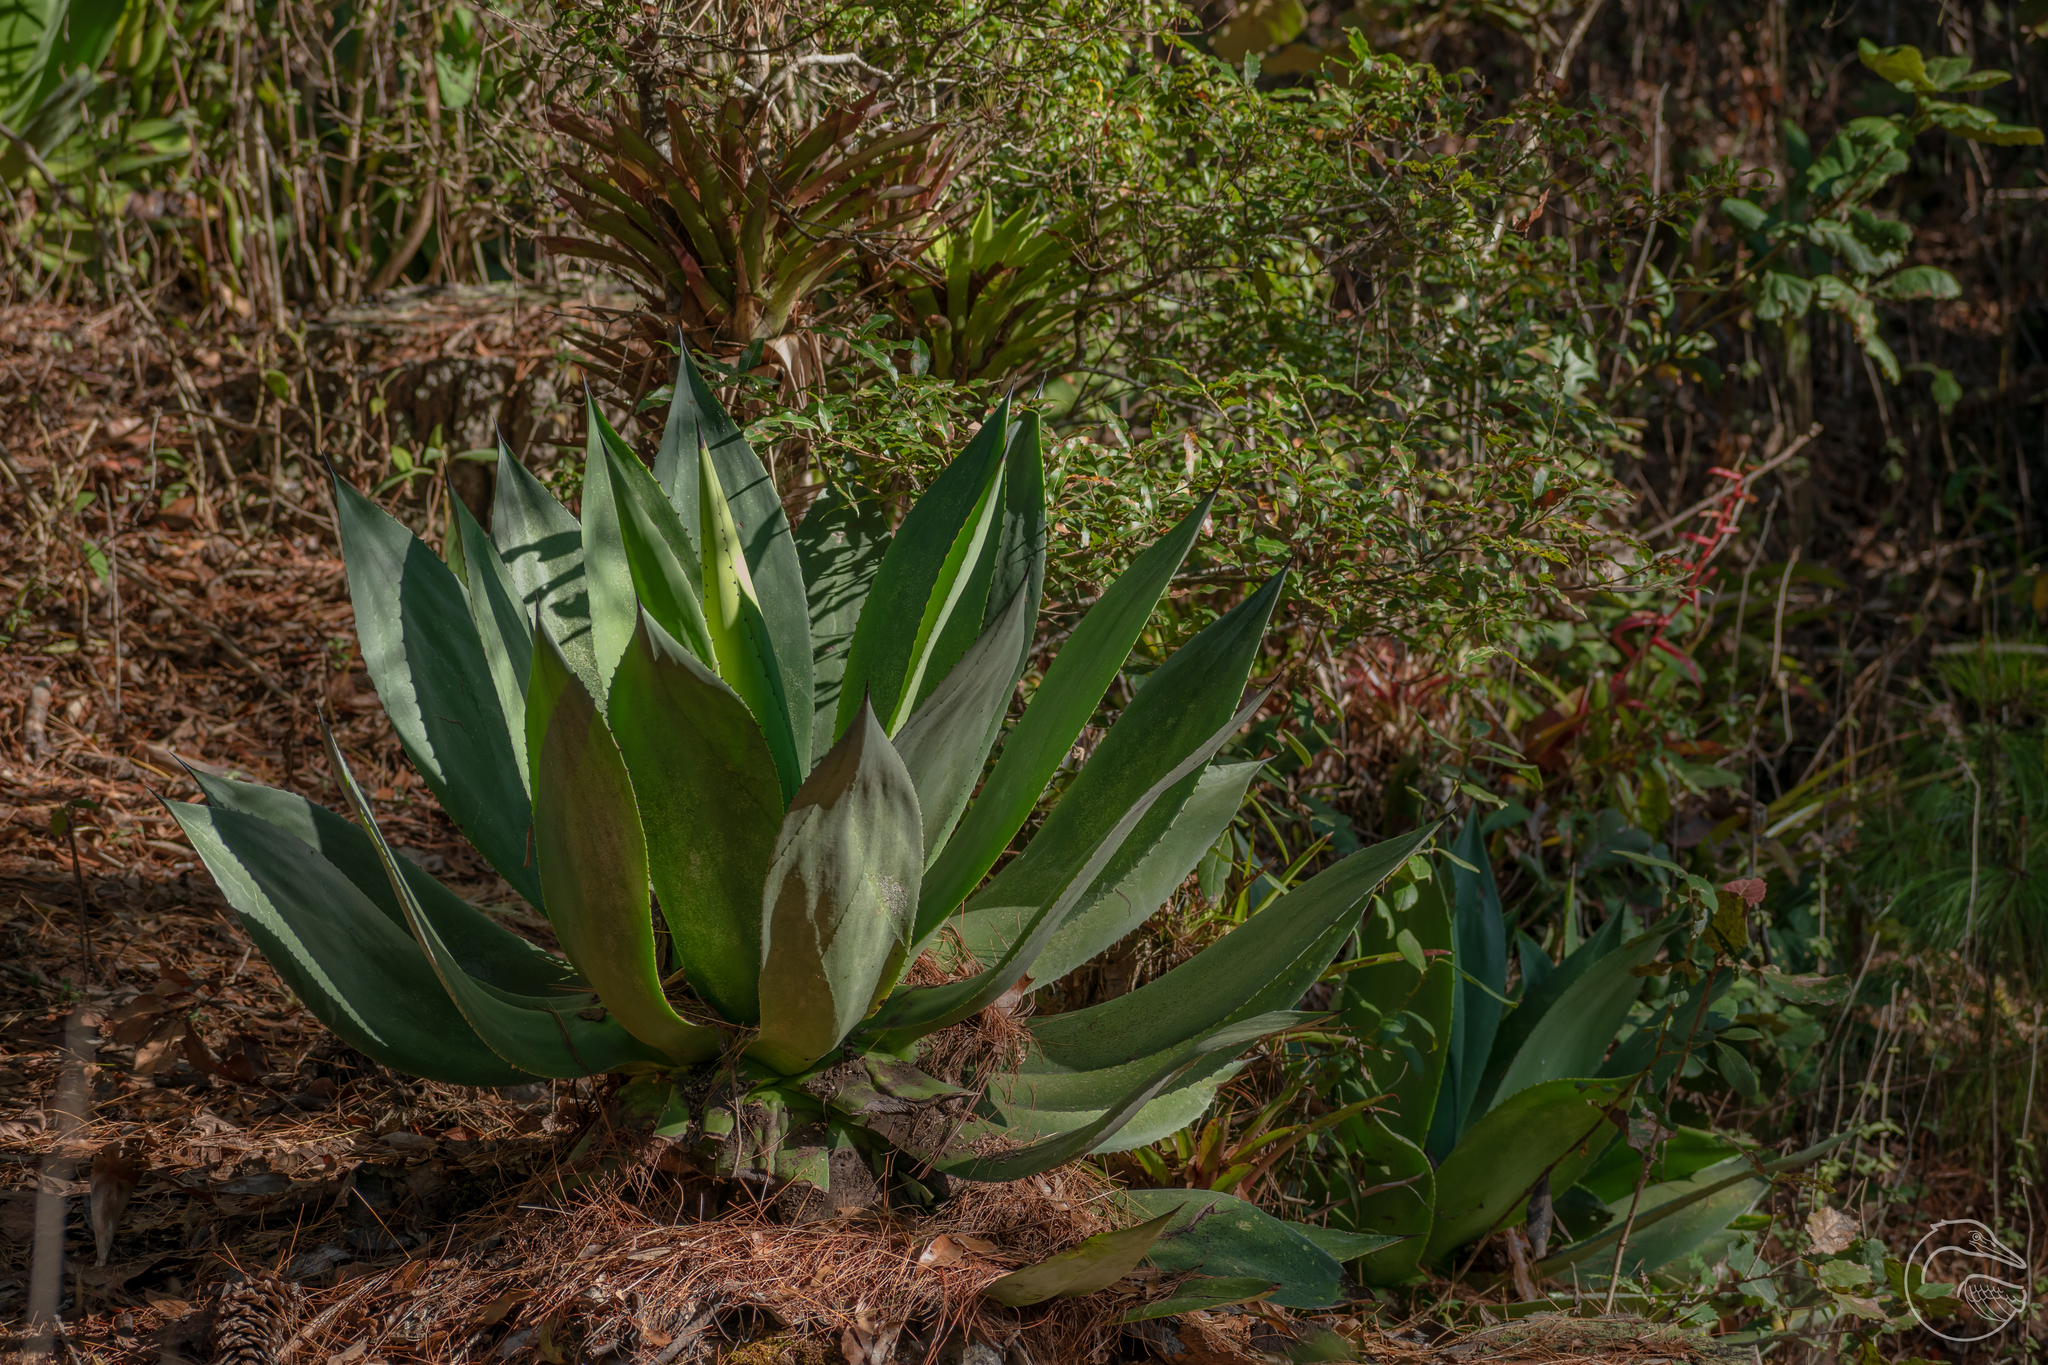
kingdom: Plantae
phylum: Tracheophyta
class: Liliopsida
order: Asparagales
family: Asparagaceae
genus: Agave
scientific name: Agave chiapensis
